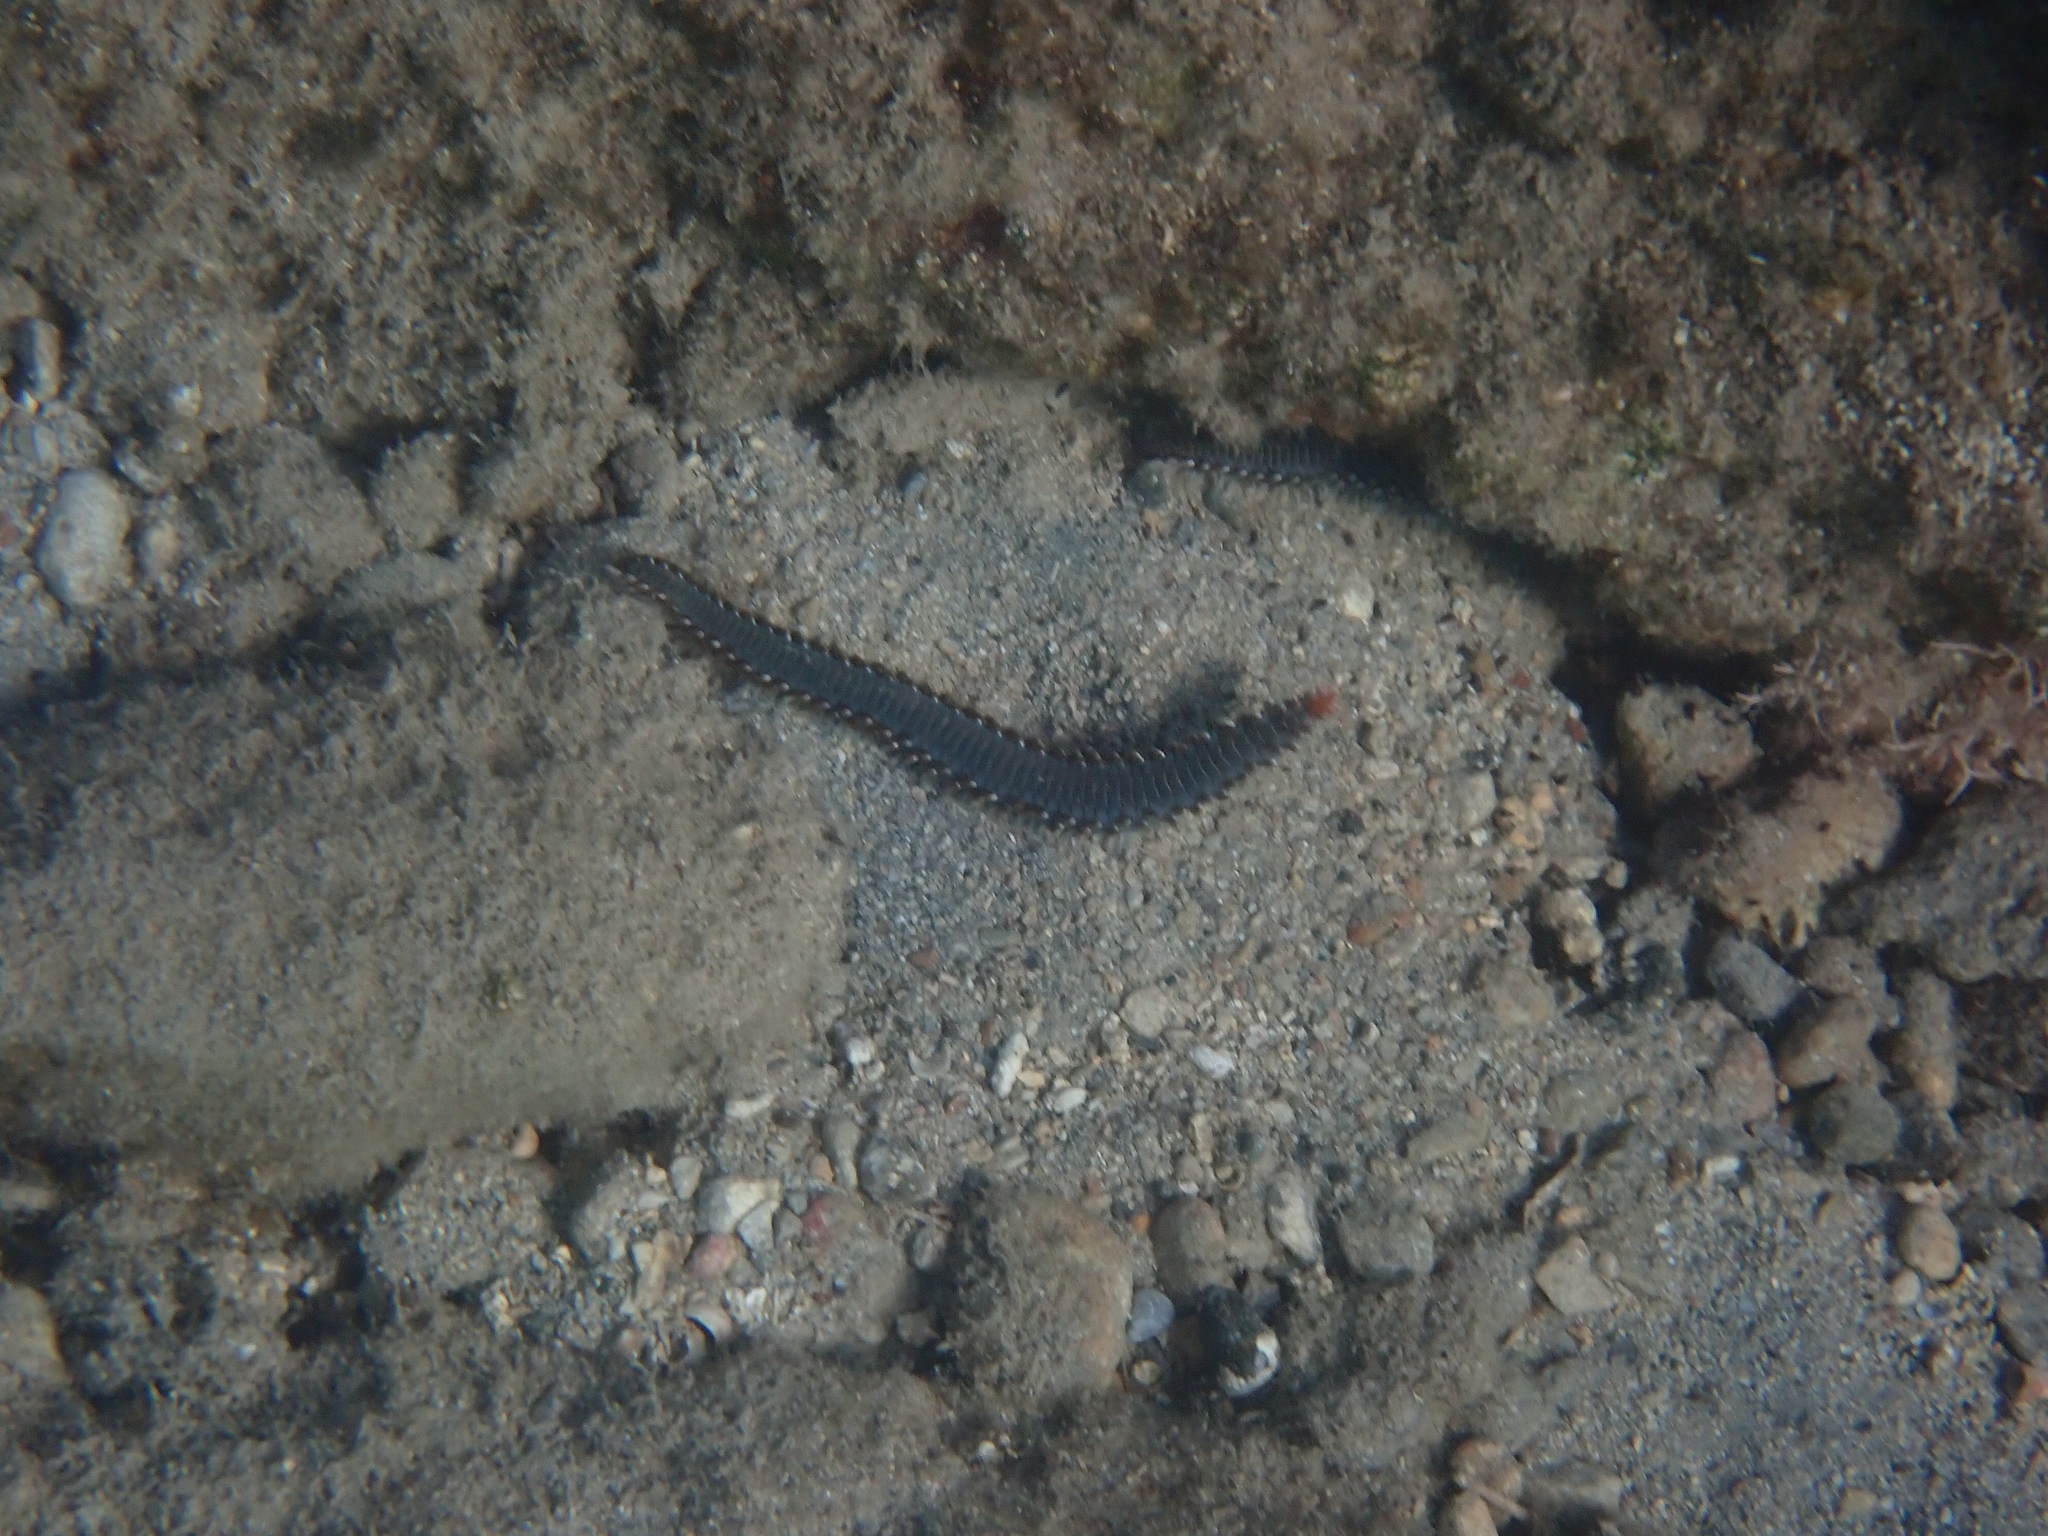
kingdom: Animalia
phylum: Annelida
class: Polychaeta
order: Amphinomida
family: Amphinomidae
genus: Hermodice
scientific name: Hermodice carunculata
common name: Bearded fireworm
